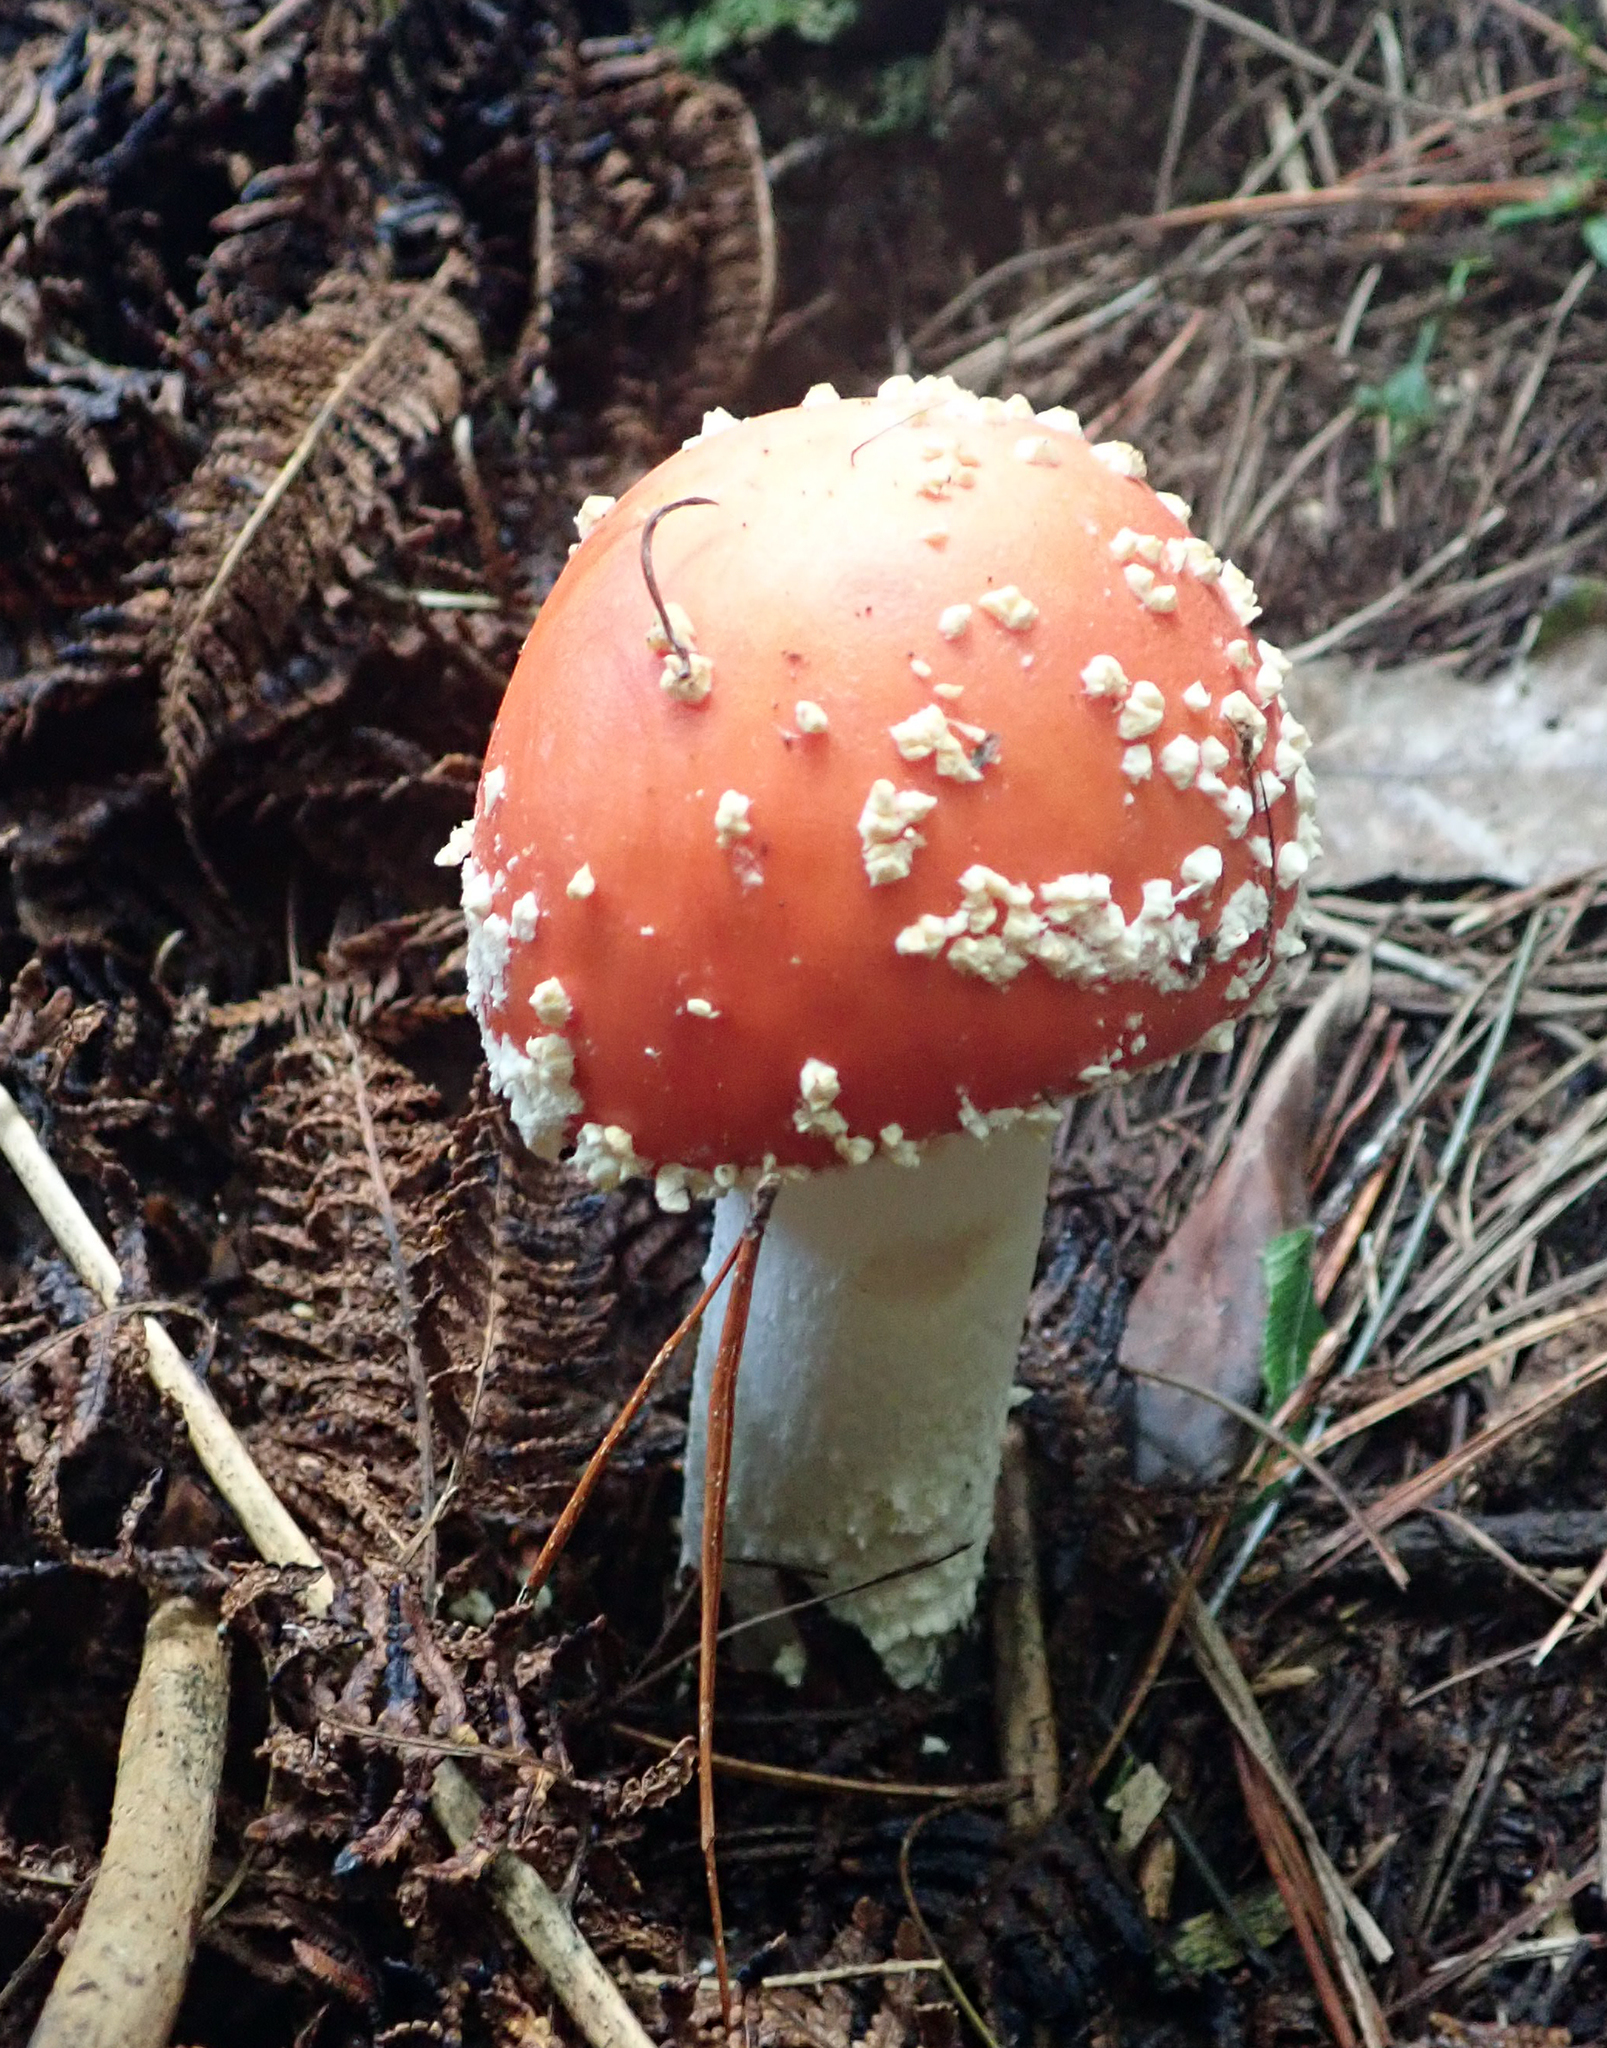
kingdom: Fungi
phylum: Basidiomycota
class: Agaricomycetes
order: Agaricales
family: Amanitaceae
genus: Amanita
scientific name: Amanita muscaria
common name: Fly agaric
